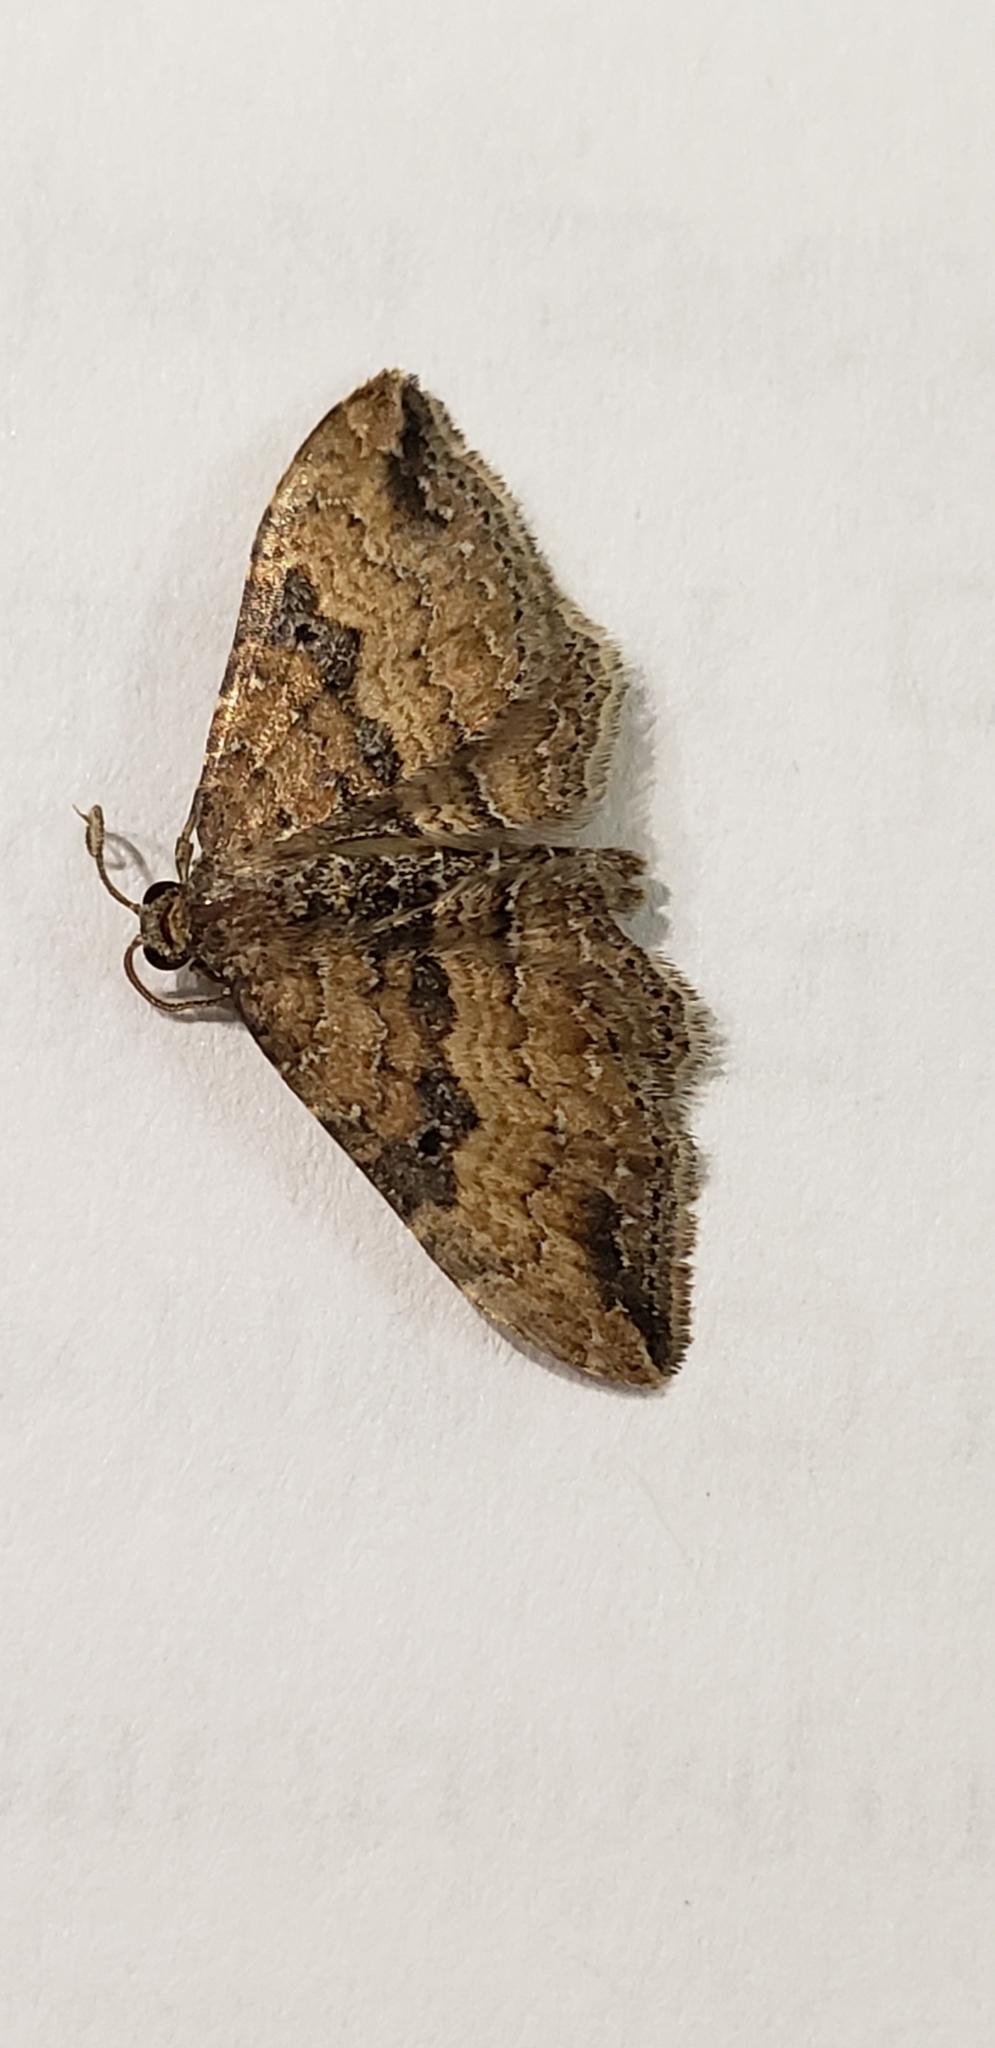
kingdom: Animalia
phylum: Arthropoda
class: Insecta
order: Lepidoptera
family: Geometridae
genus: Orthonama
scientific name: Orthonama obstipata
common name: The gem
